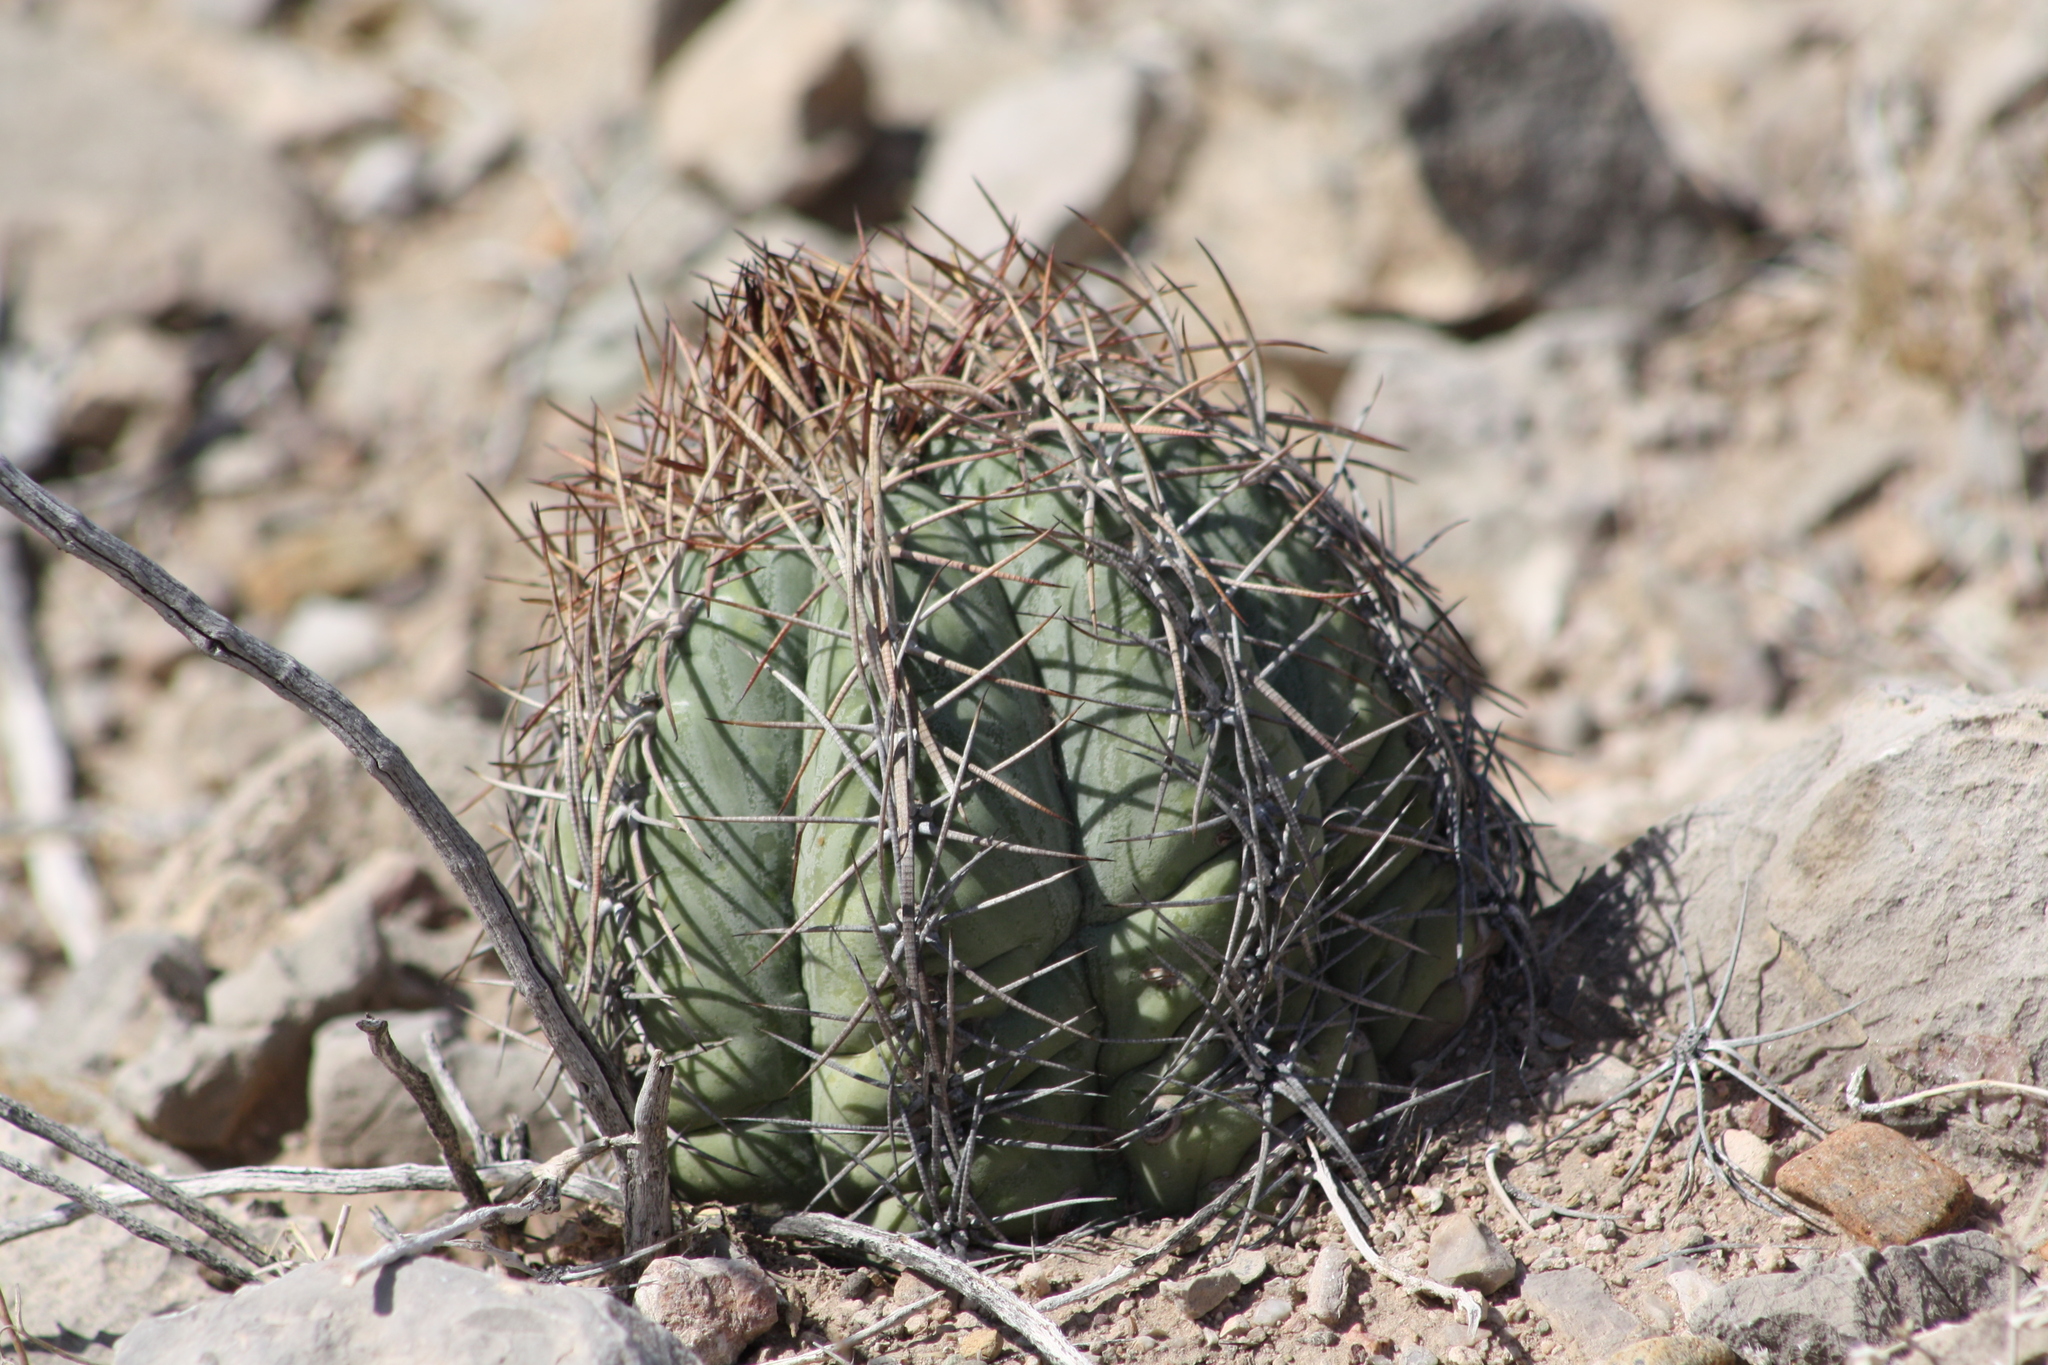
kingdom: Plantae
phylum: Tracheophyta
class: Magnoliopsida
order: Caryophyllales
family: Cactaceae
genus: Echinocactus
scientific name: Echinocactus horizonthalonius
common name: Devilshead
